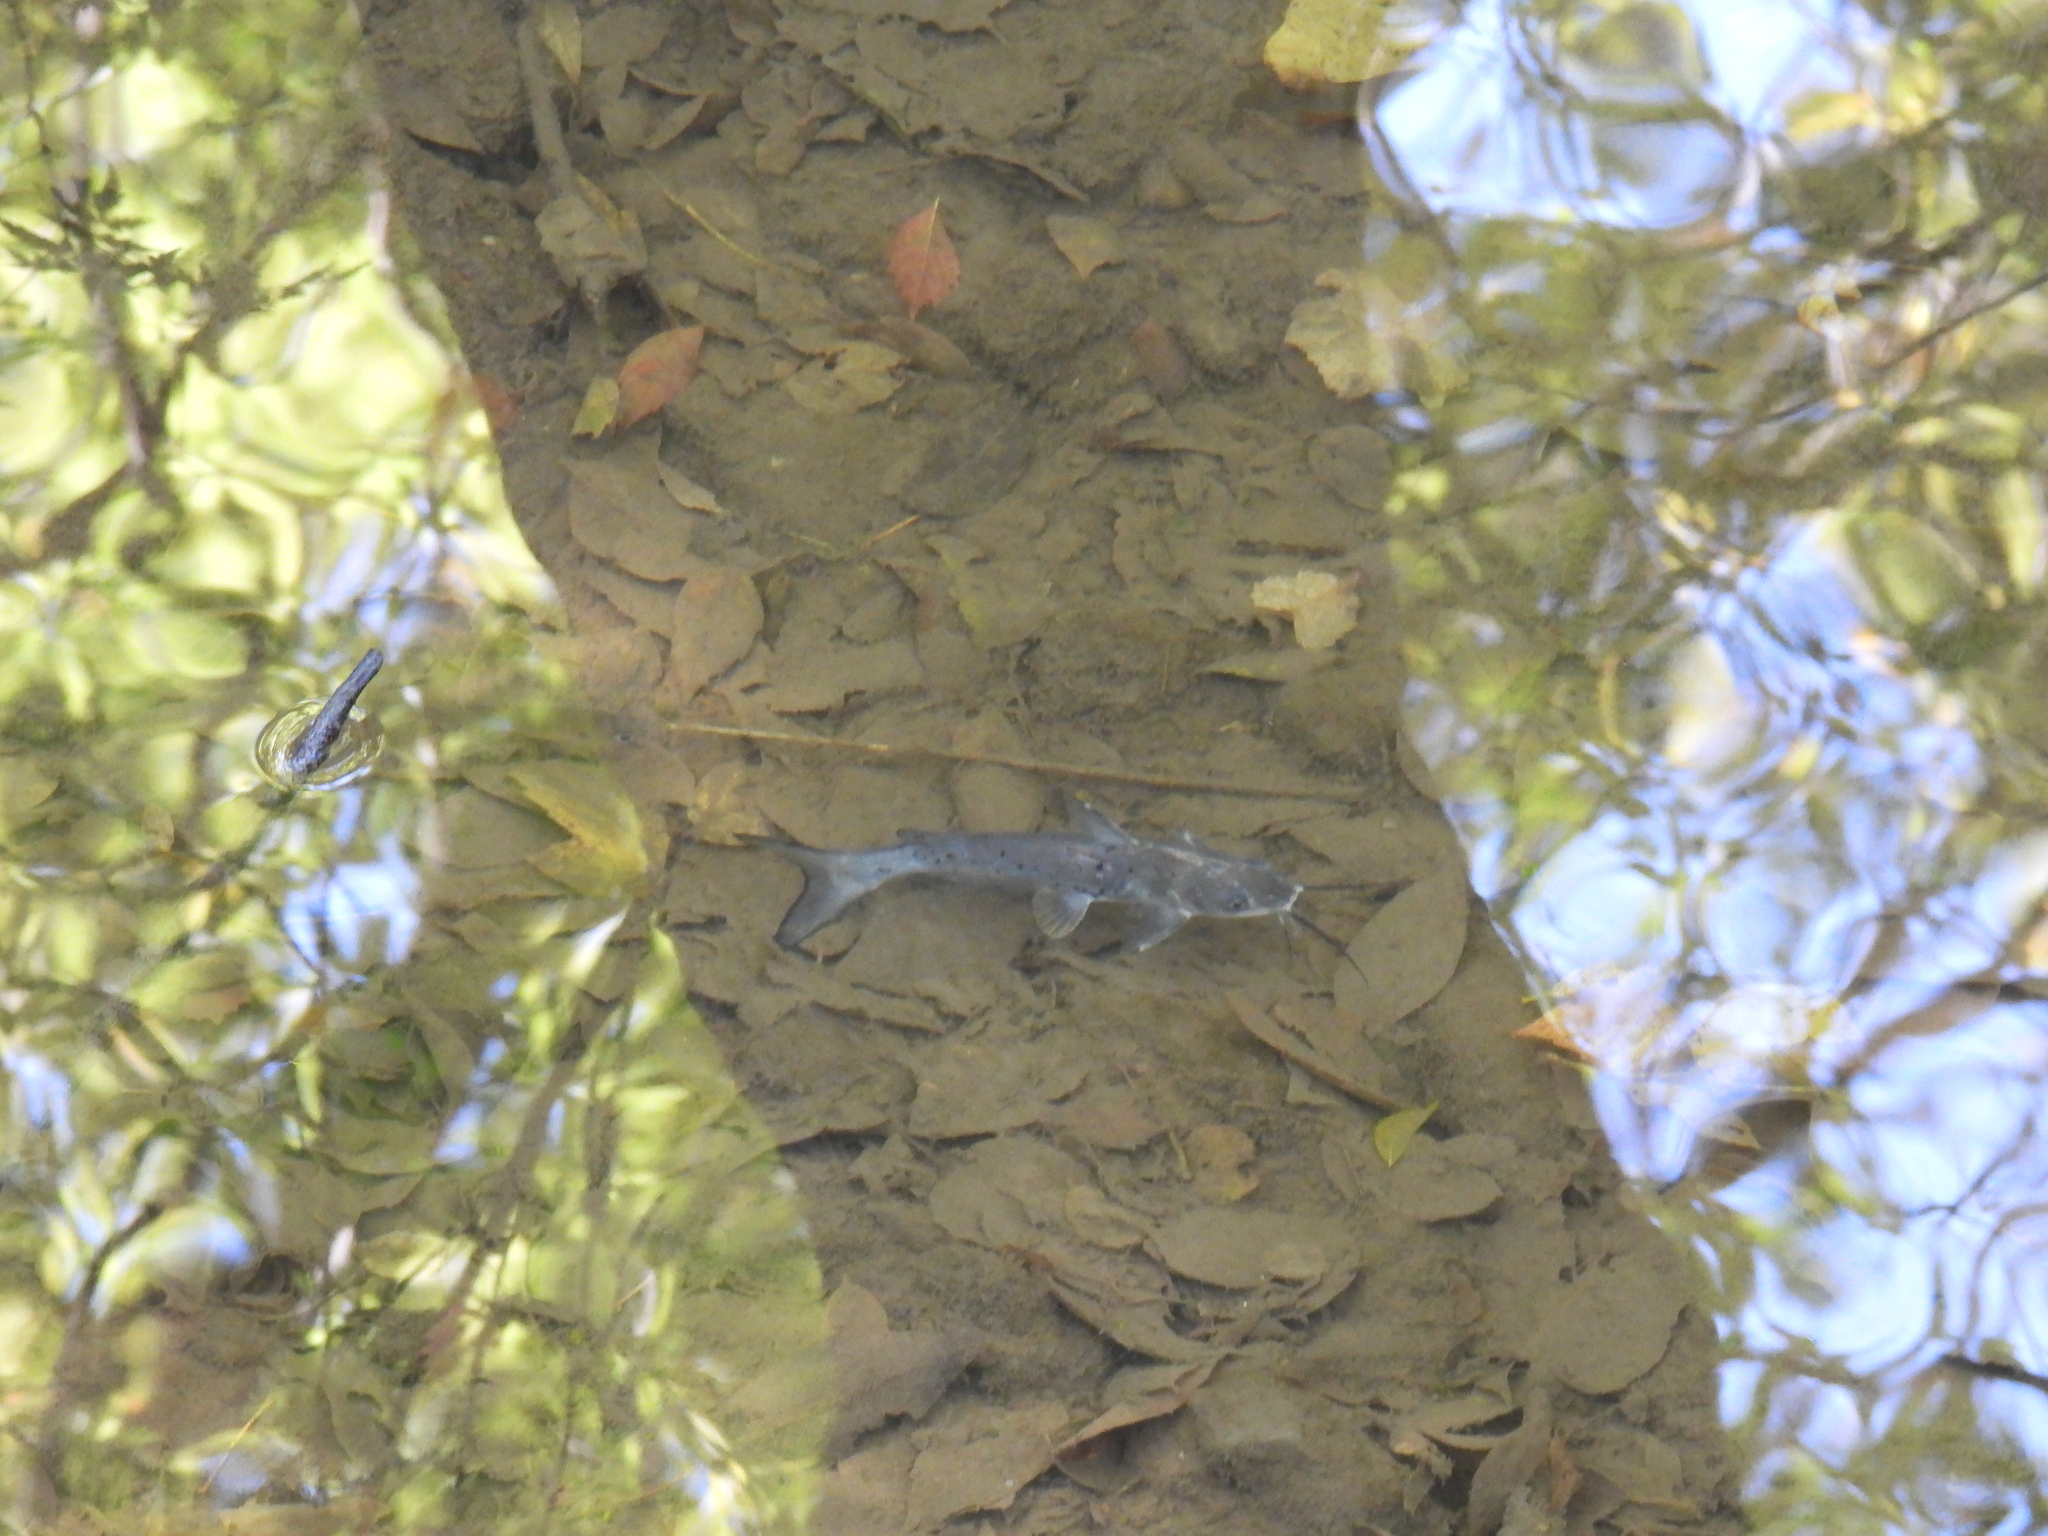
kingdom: Animalia
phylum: Chordata
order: Siluriformes
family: Ictaluridae
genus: Ictalurus
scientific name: Ictalurus punctatus
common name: Channel catfish
